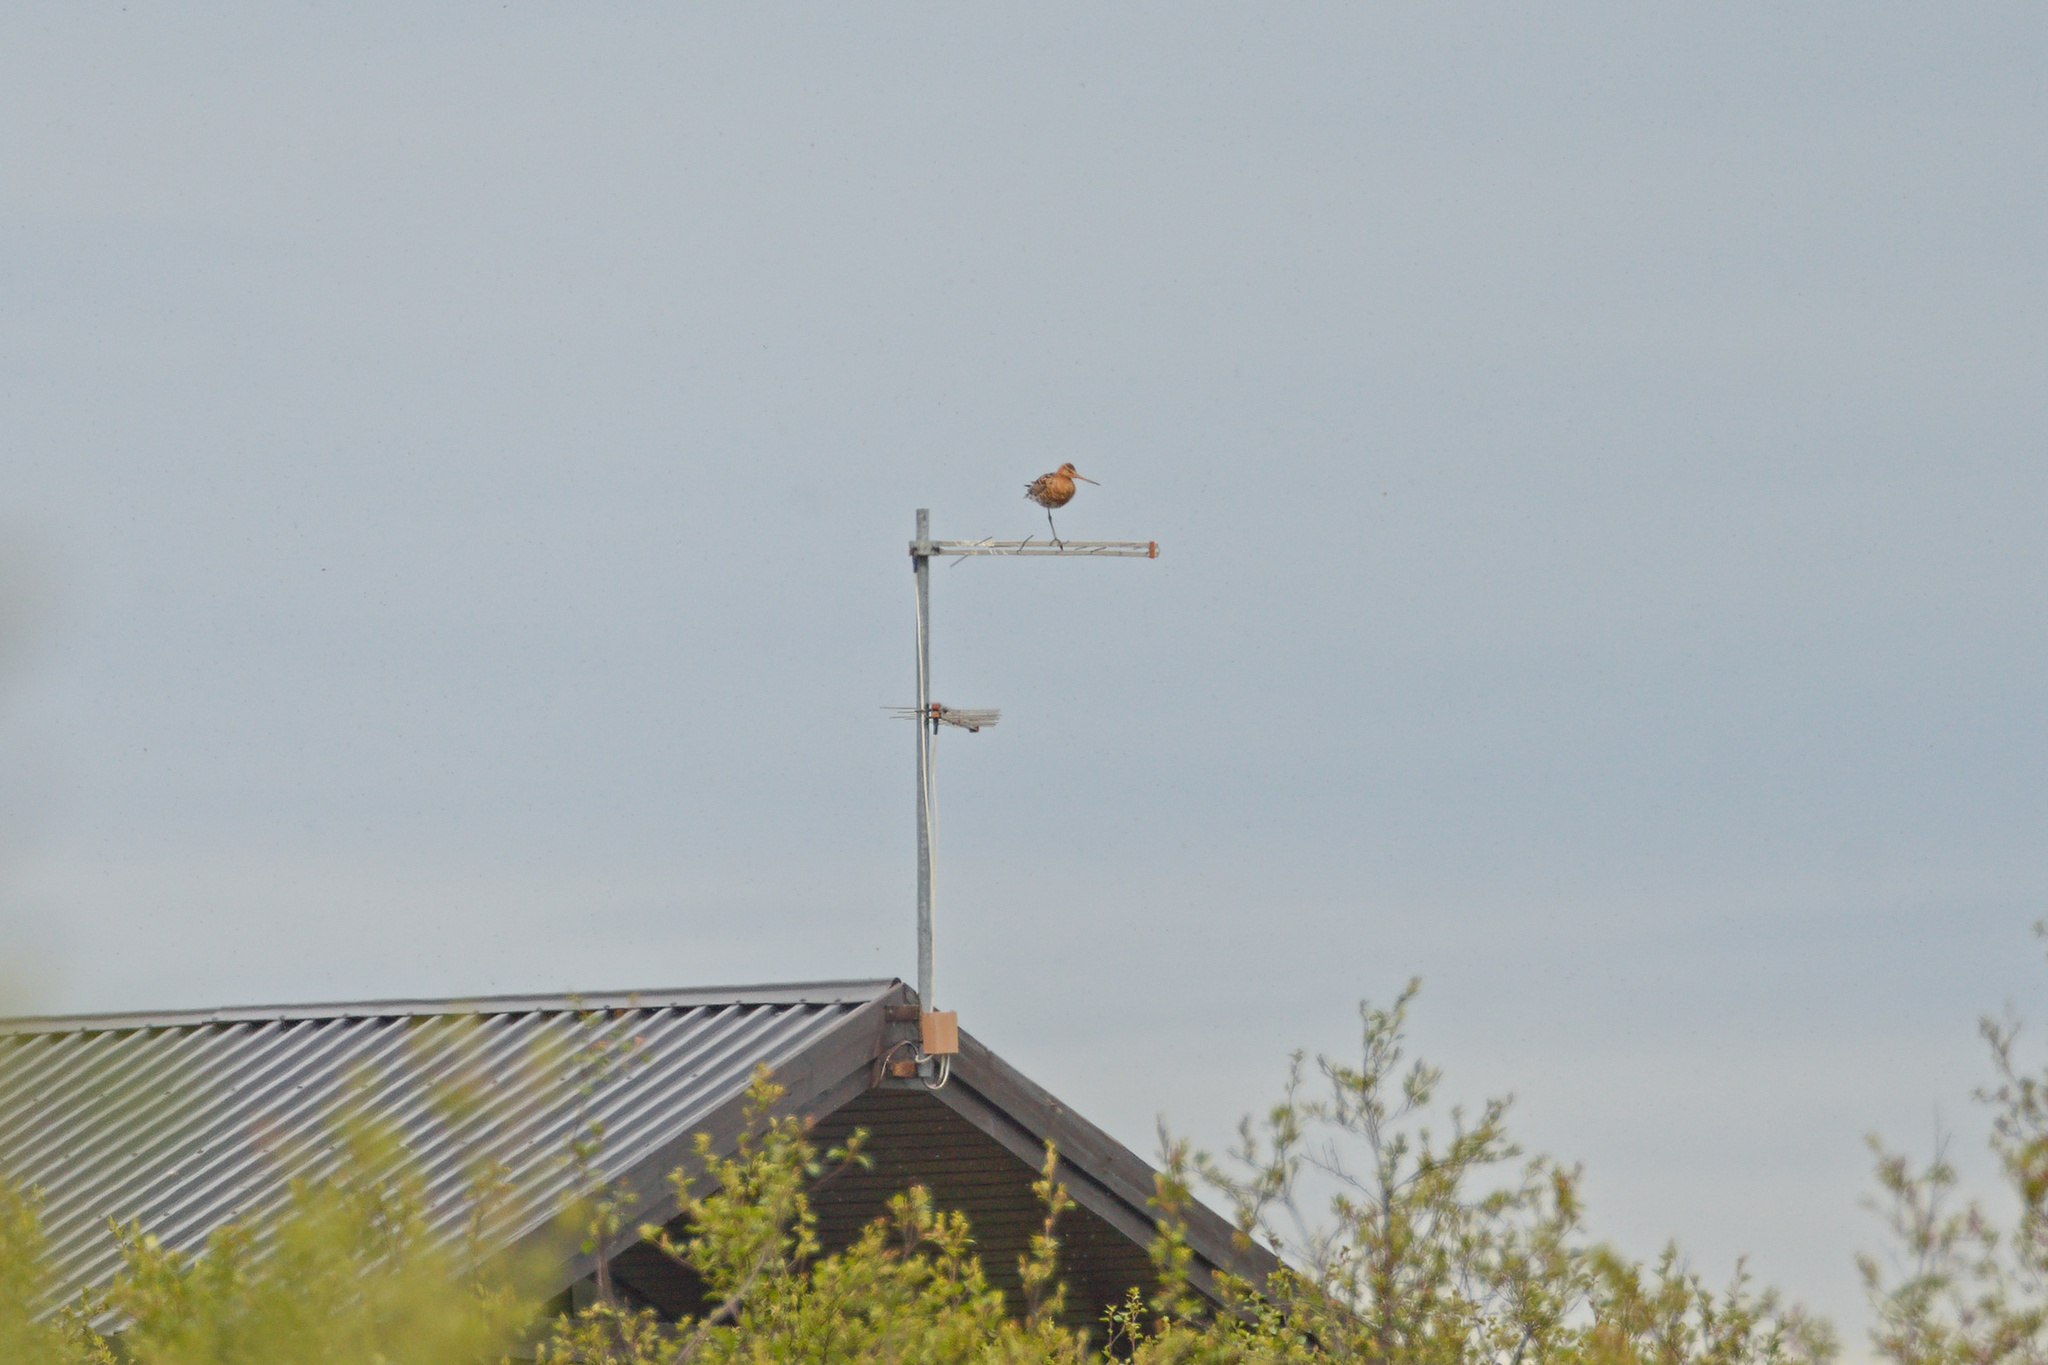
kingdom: Animalia
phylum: Chordata
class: Aves
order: Charadriiformes
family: Scolopacidae
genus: Limosa
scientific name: Limosa limosa
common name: Black-tailed godwit
